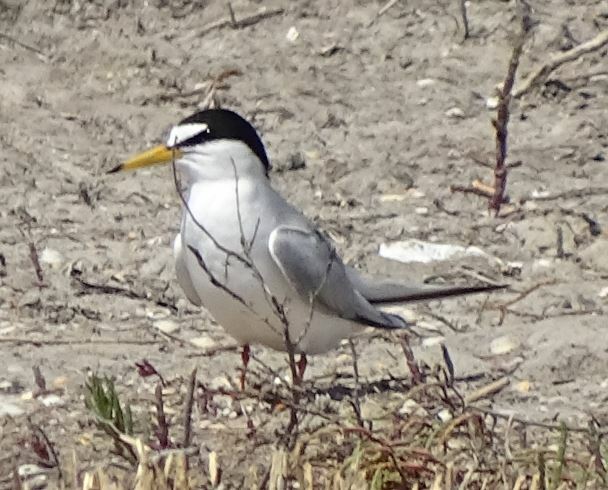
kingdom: Animalia
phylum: Chordata
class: Aves
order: Charadriiformes
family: Laridae
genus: Sternula
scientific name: Sternula albifrons
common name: Little tern
